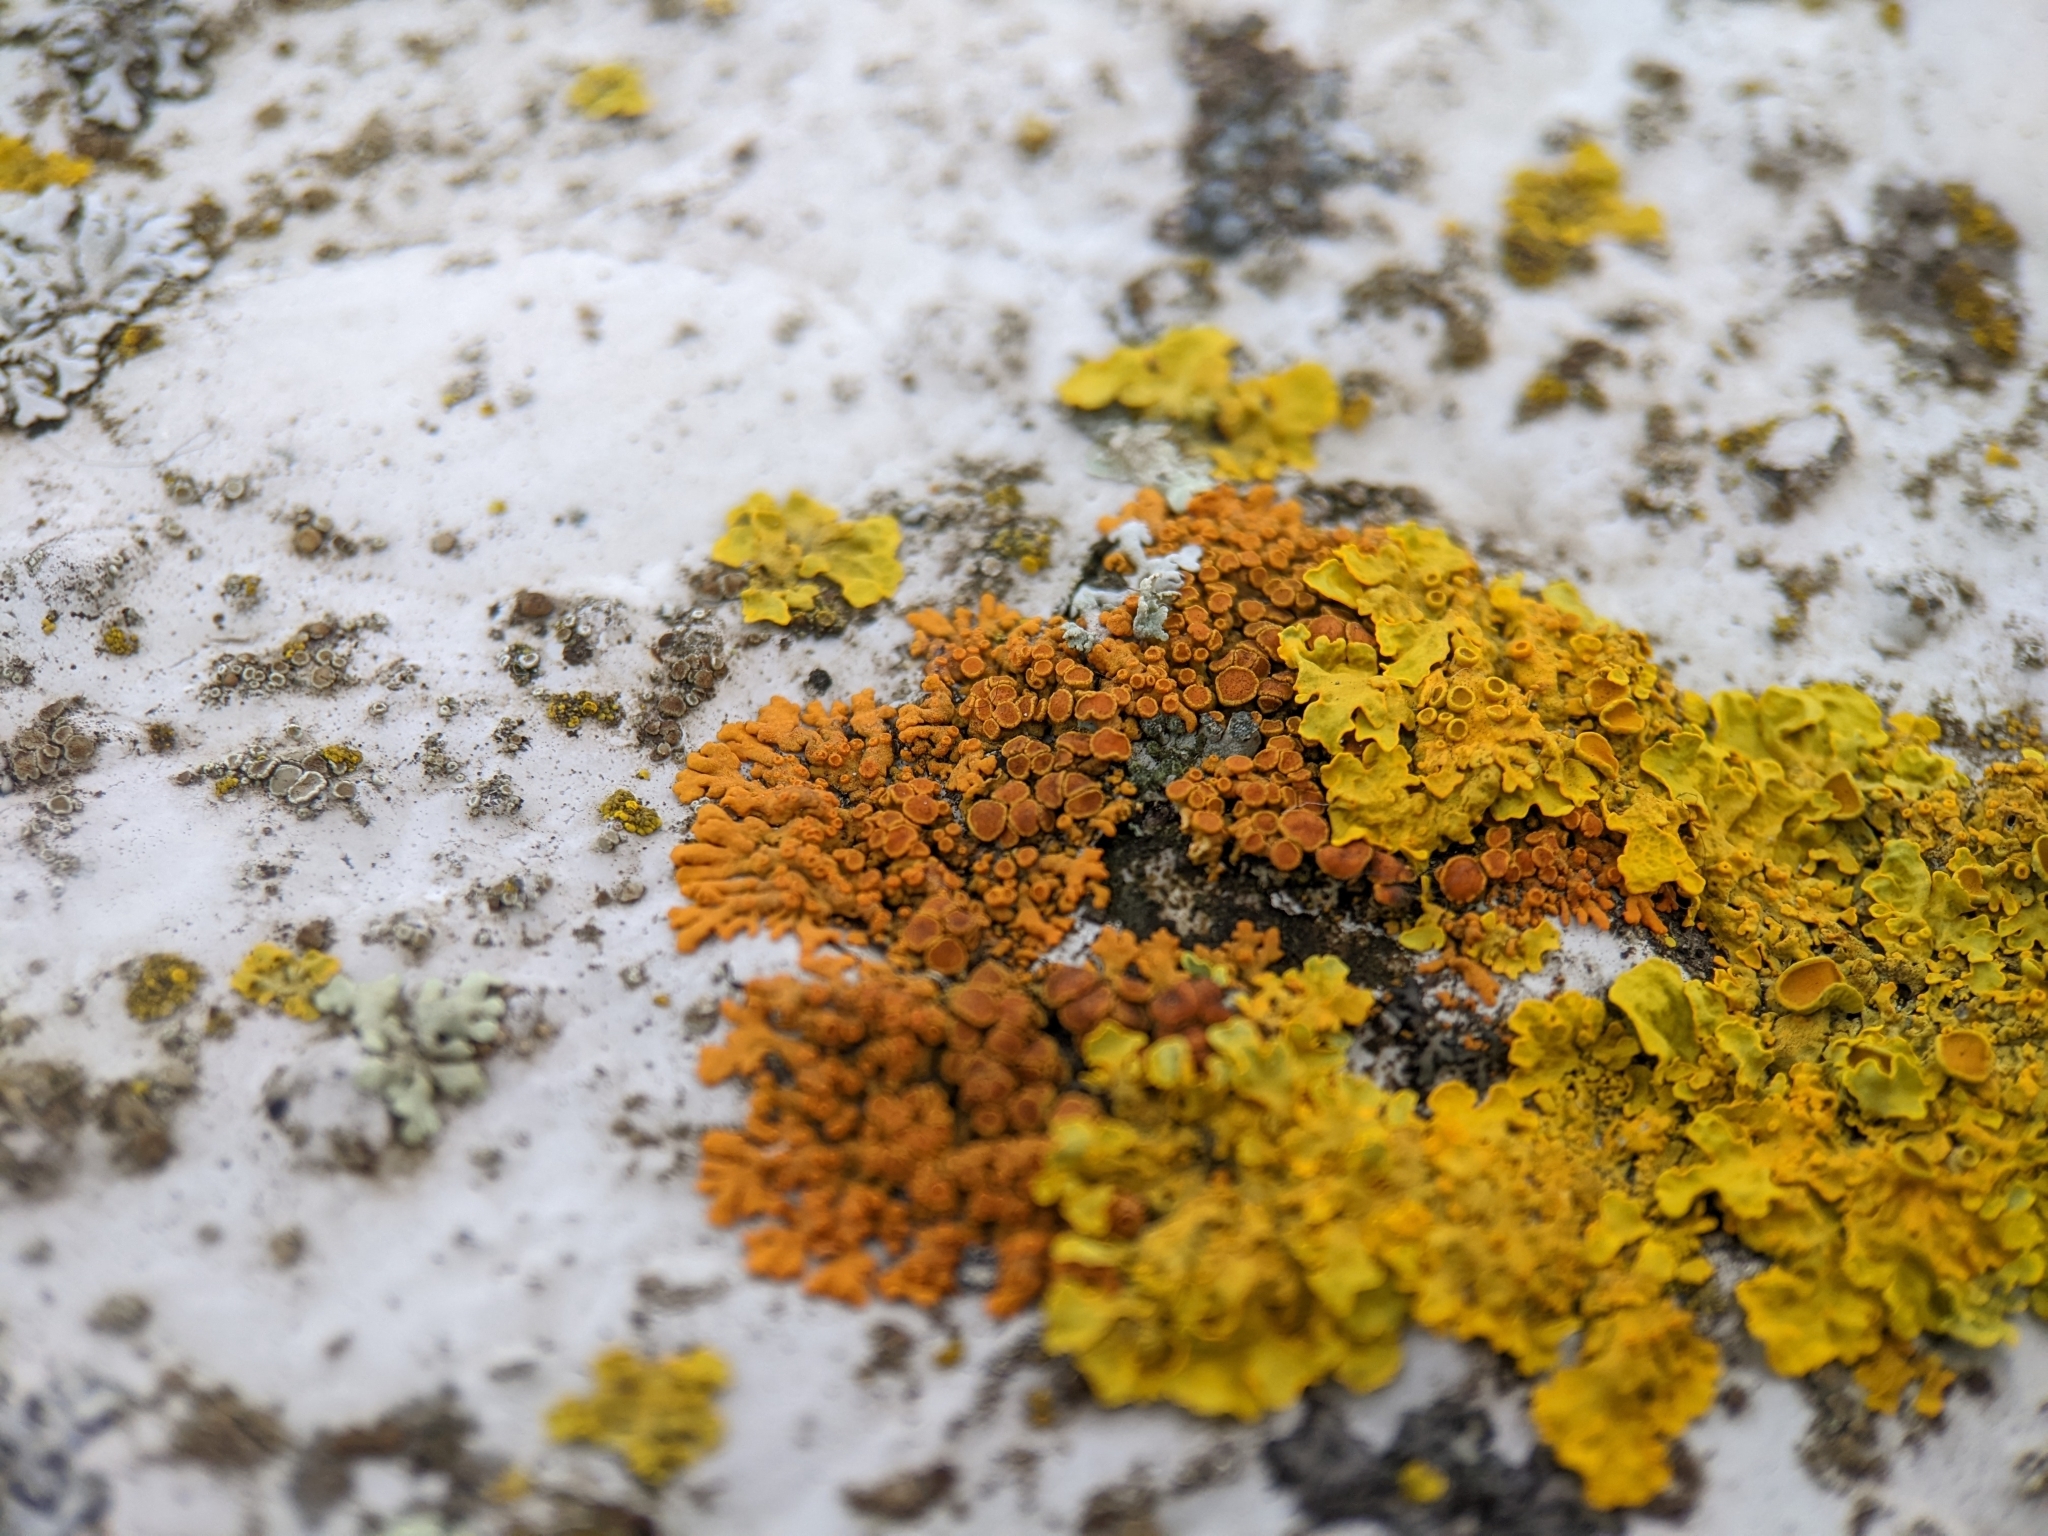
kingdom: Fungi
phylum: Ascomycota
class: Lecanoromycetes
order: Teloschistales
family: Teloschistaceae
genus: Xanthoria
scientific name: Xanthoria elegans
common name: Elegant sunburst lichen
